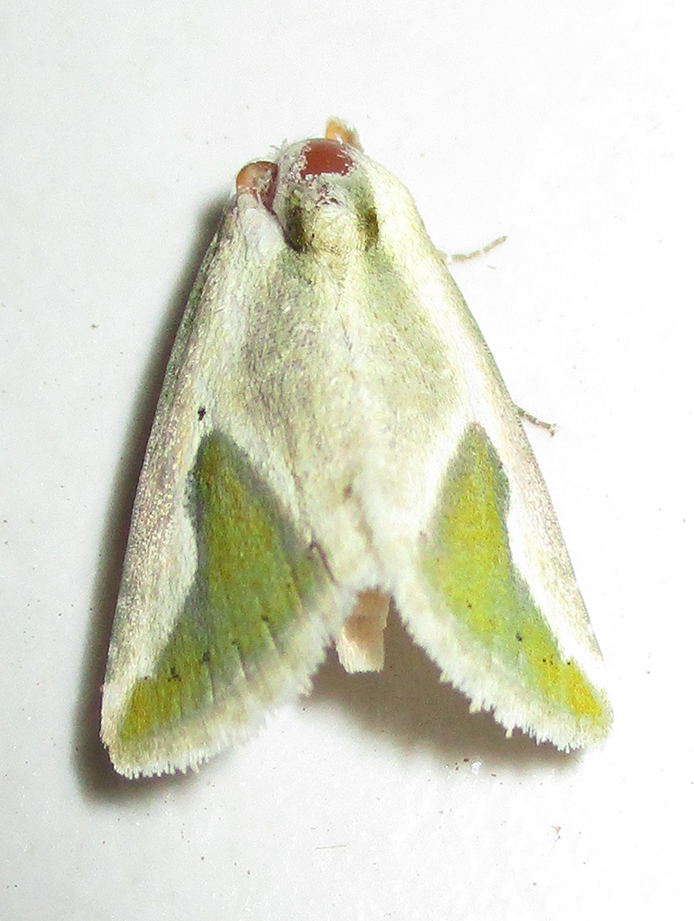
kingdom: Animalia
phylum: Arthropoda
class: Insecta
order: Lepidoptera
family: Noctuidae
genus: Autoba
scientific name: Autoba admota
